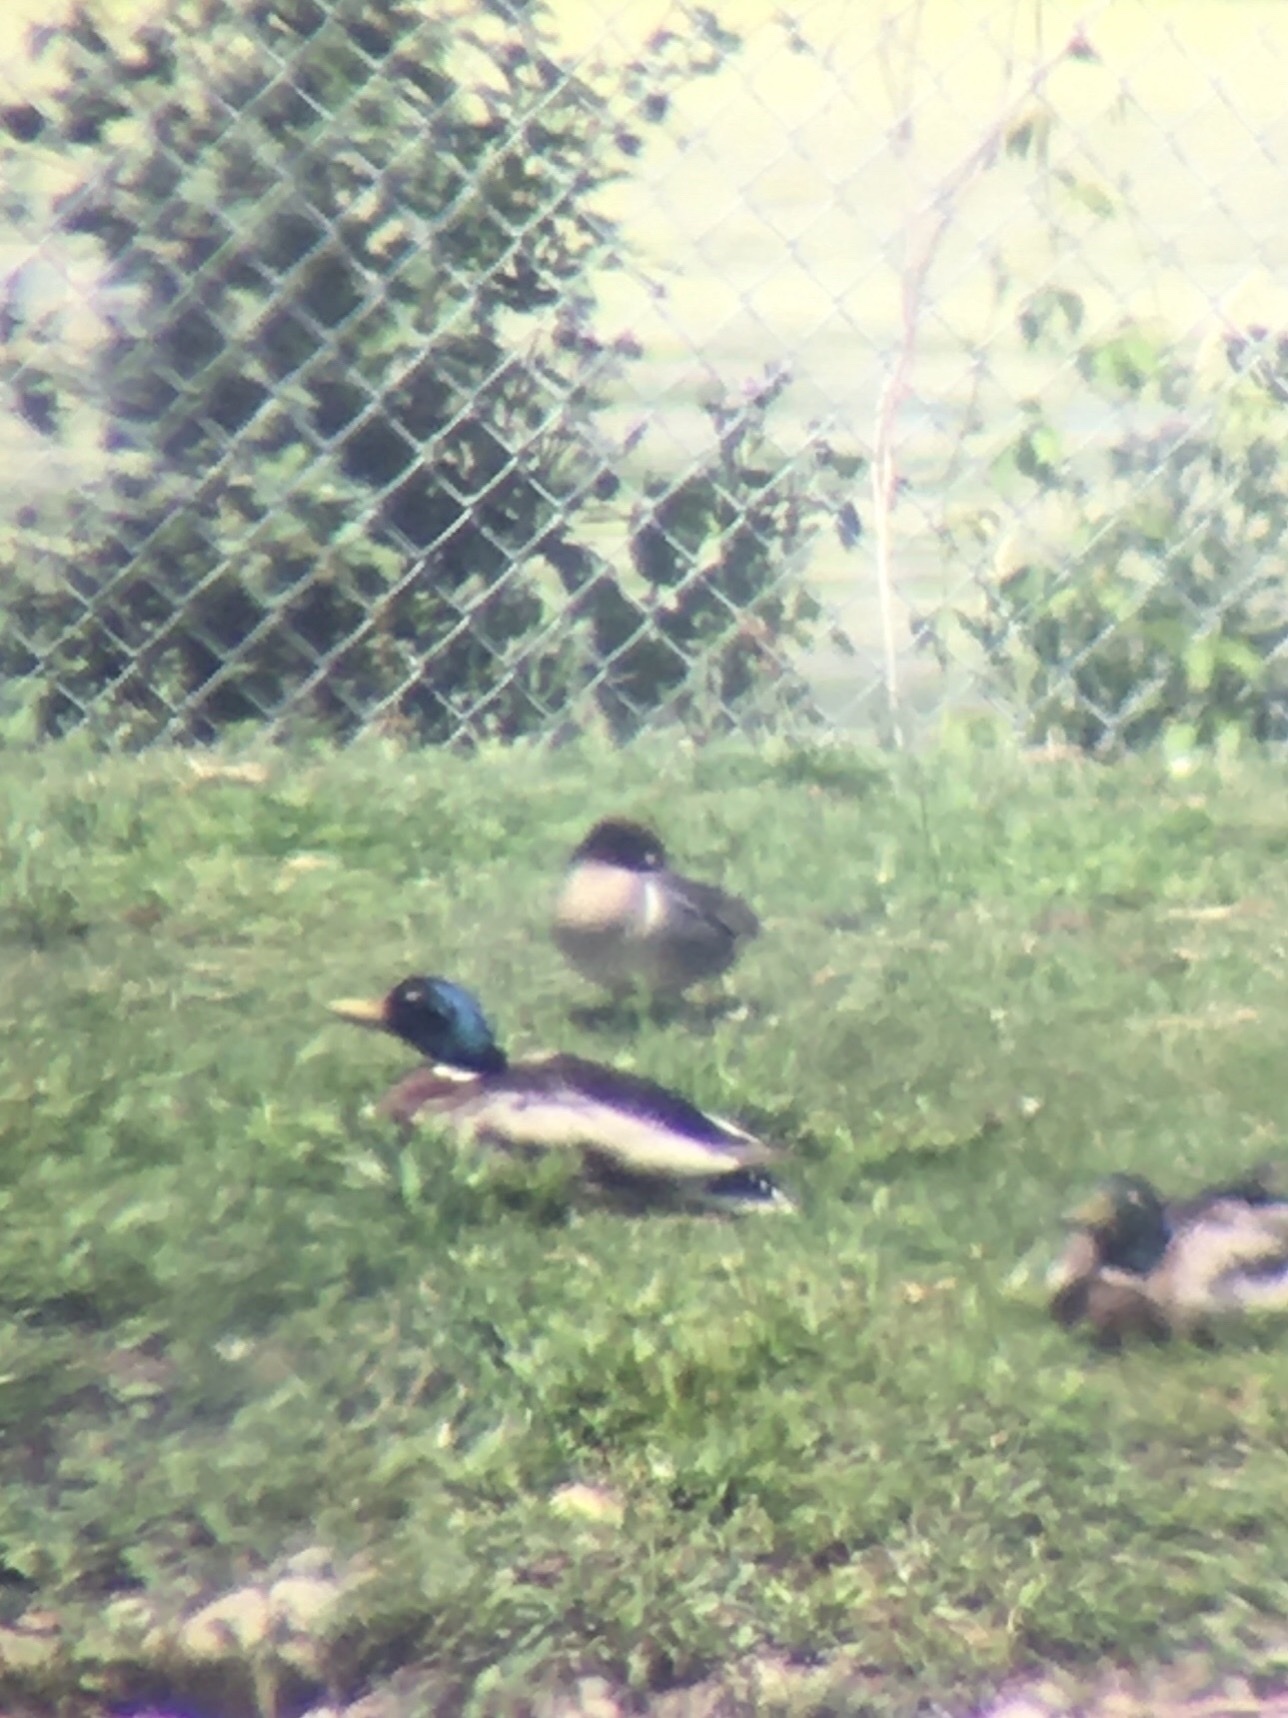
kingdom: Animalia
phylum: Chordata
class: Aves
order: Anseriformes
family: Anatidae
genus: Anas
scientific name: Anas crecca
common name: Eurasian teal
